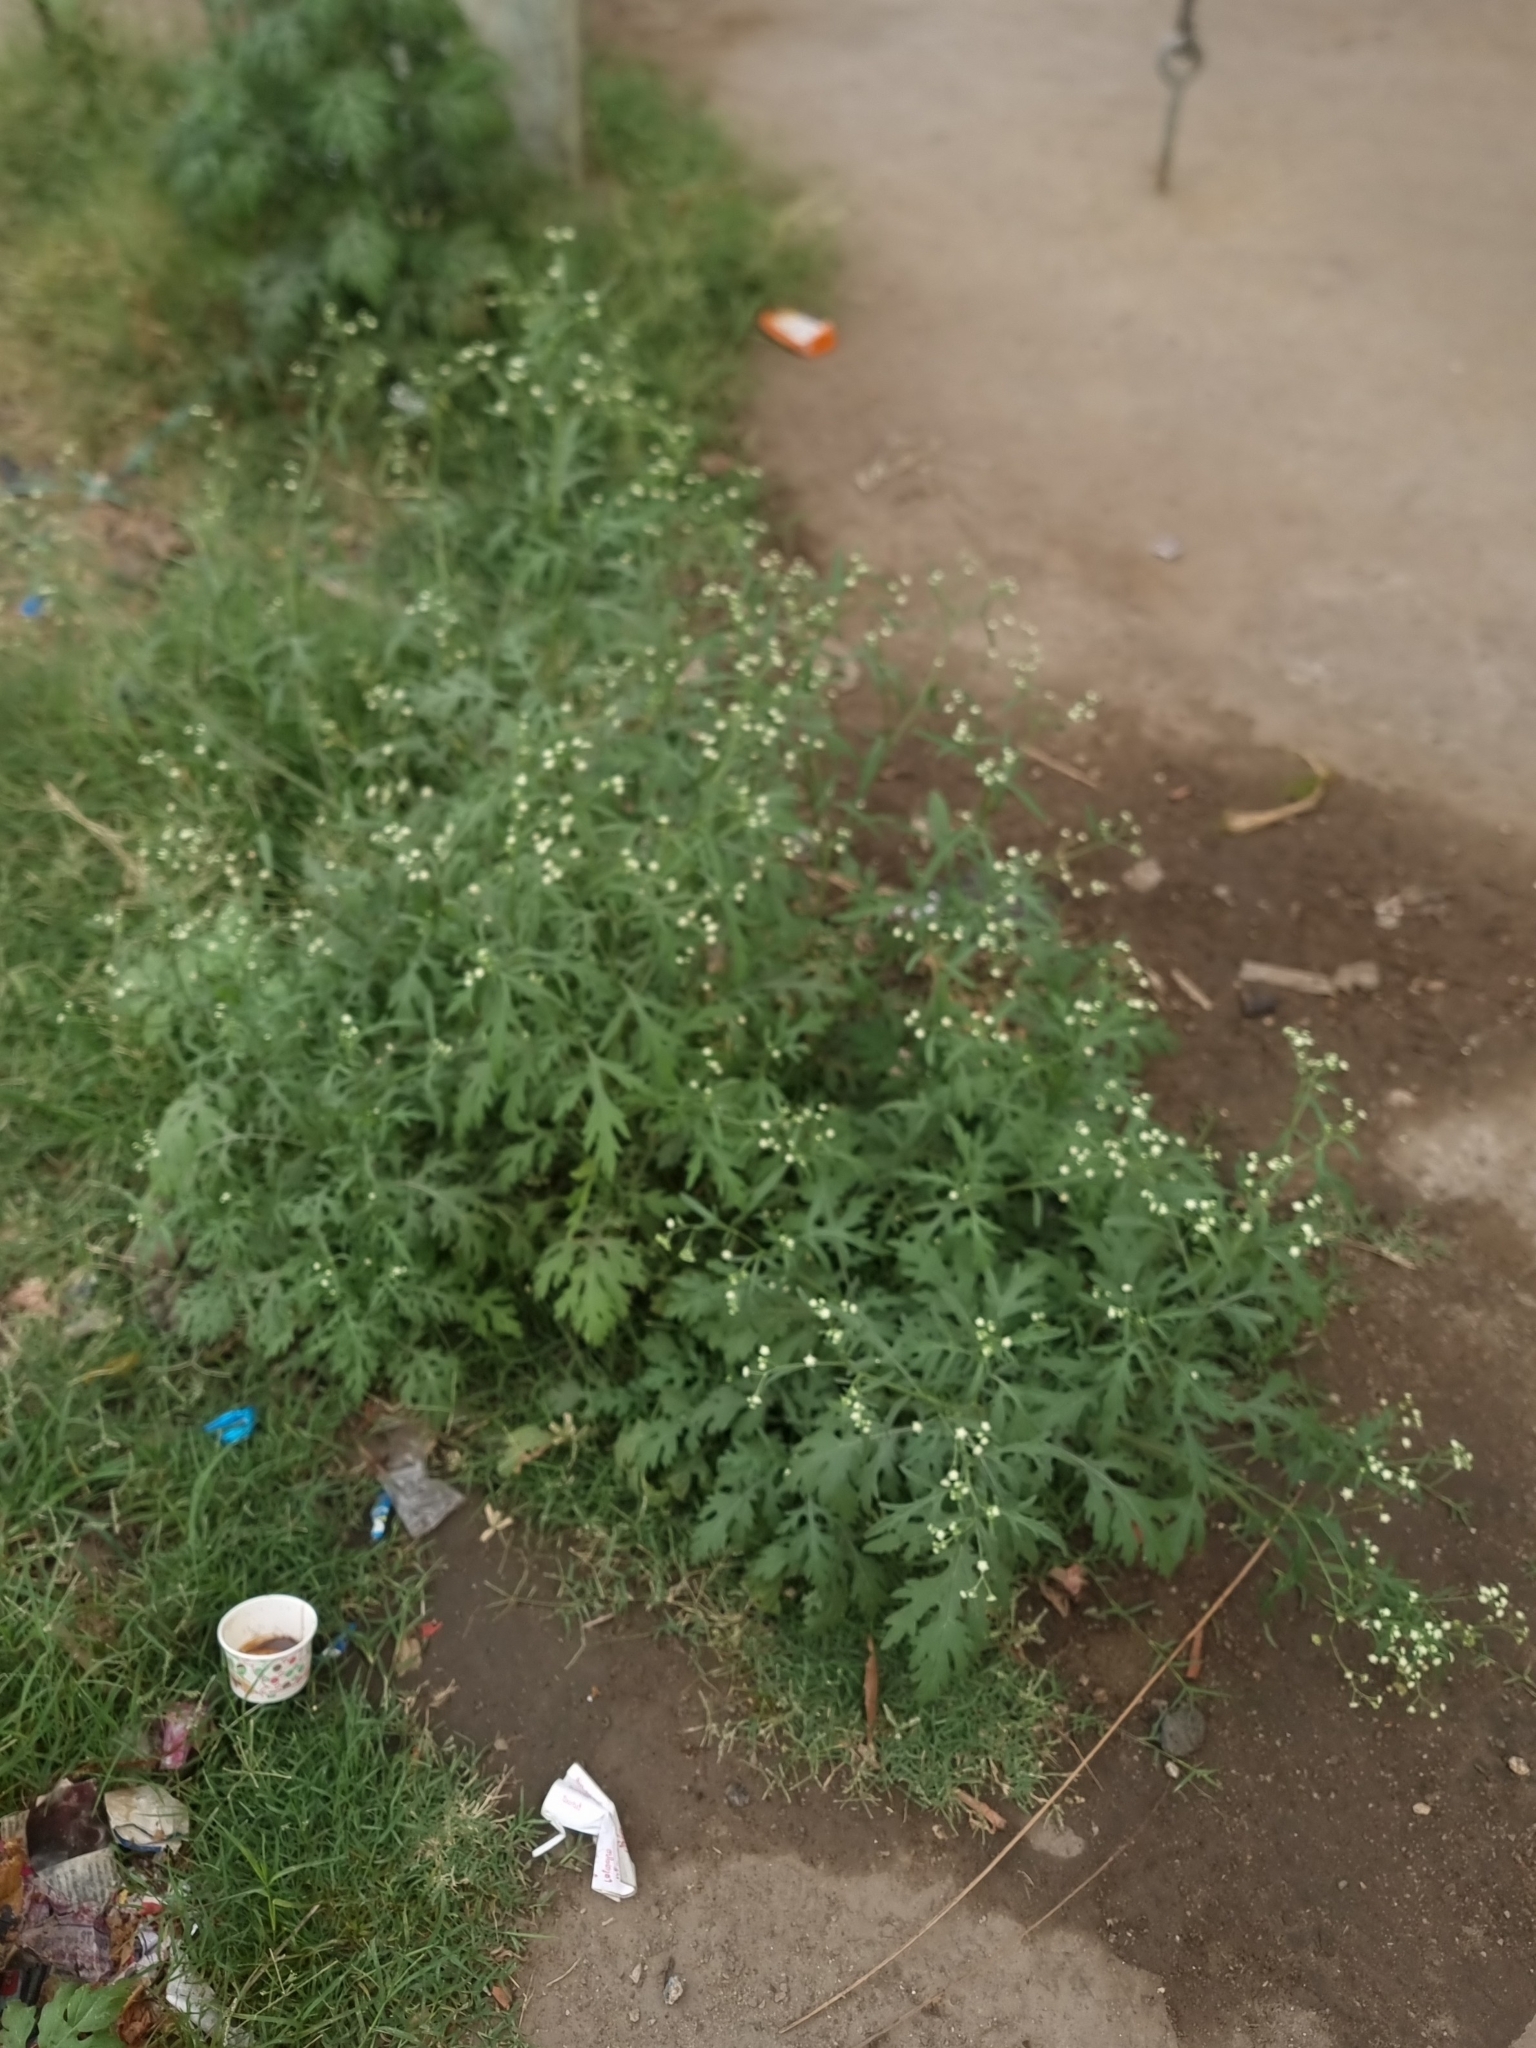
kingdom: Plantae
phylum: Tracheophyta
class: Magnoliopsida
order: Asterales
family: Asteraceae
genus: Parthenium
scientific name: Parthenium hysterophorus
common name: Santa maria feverfew
